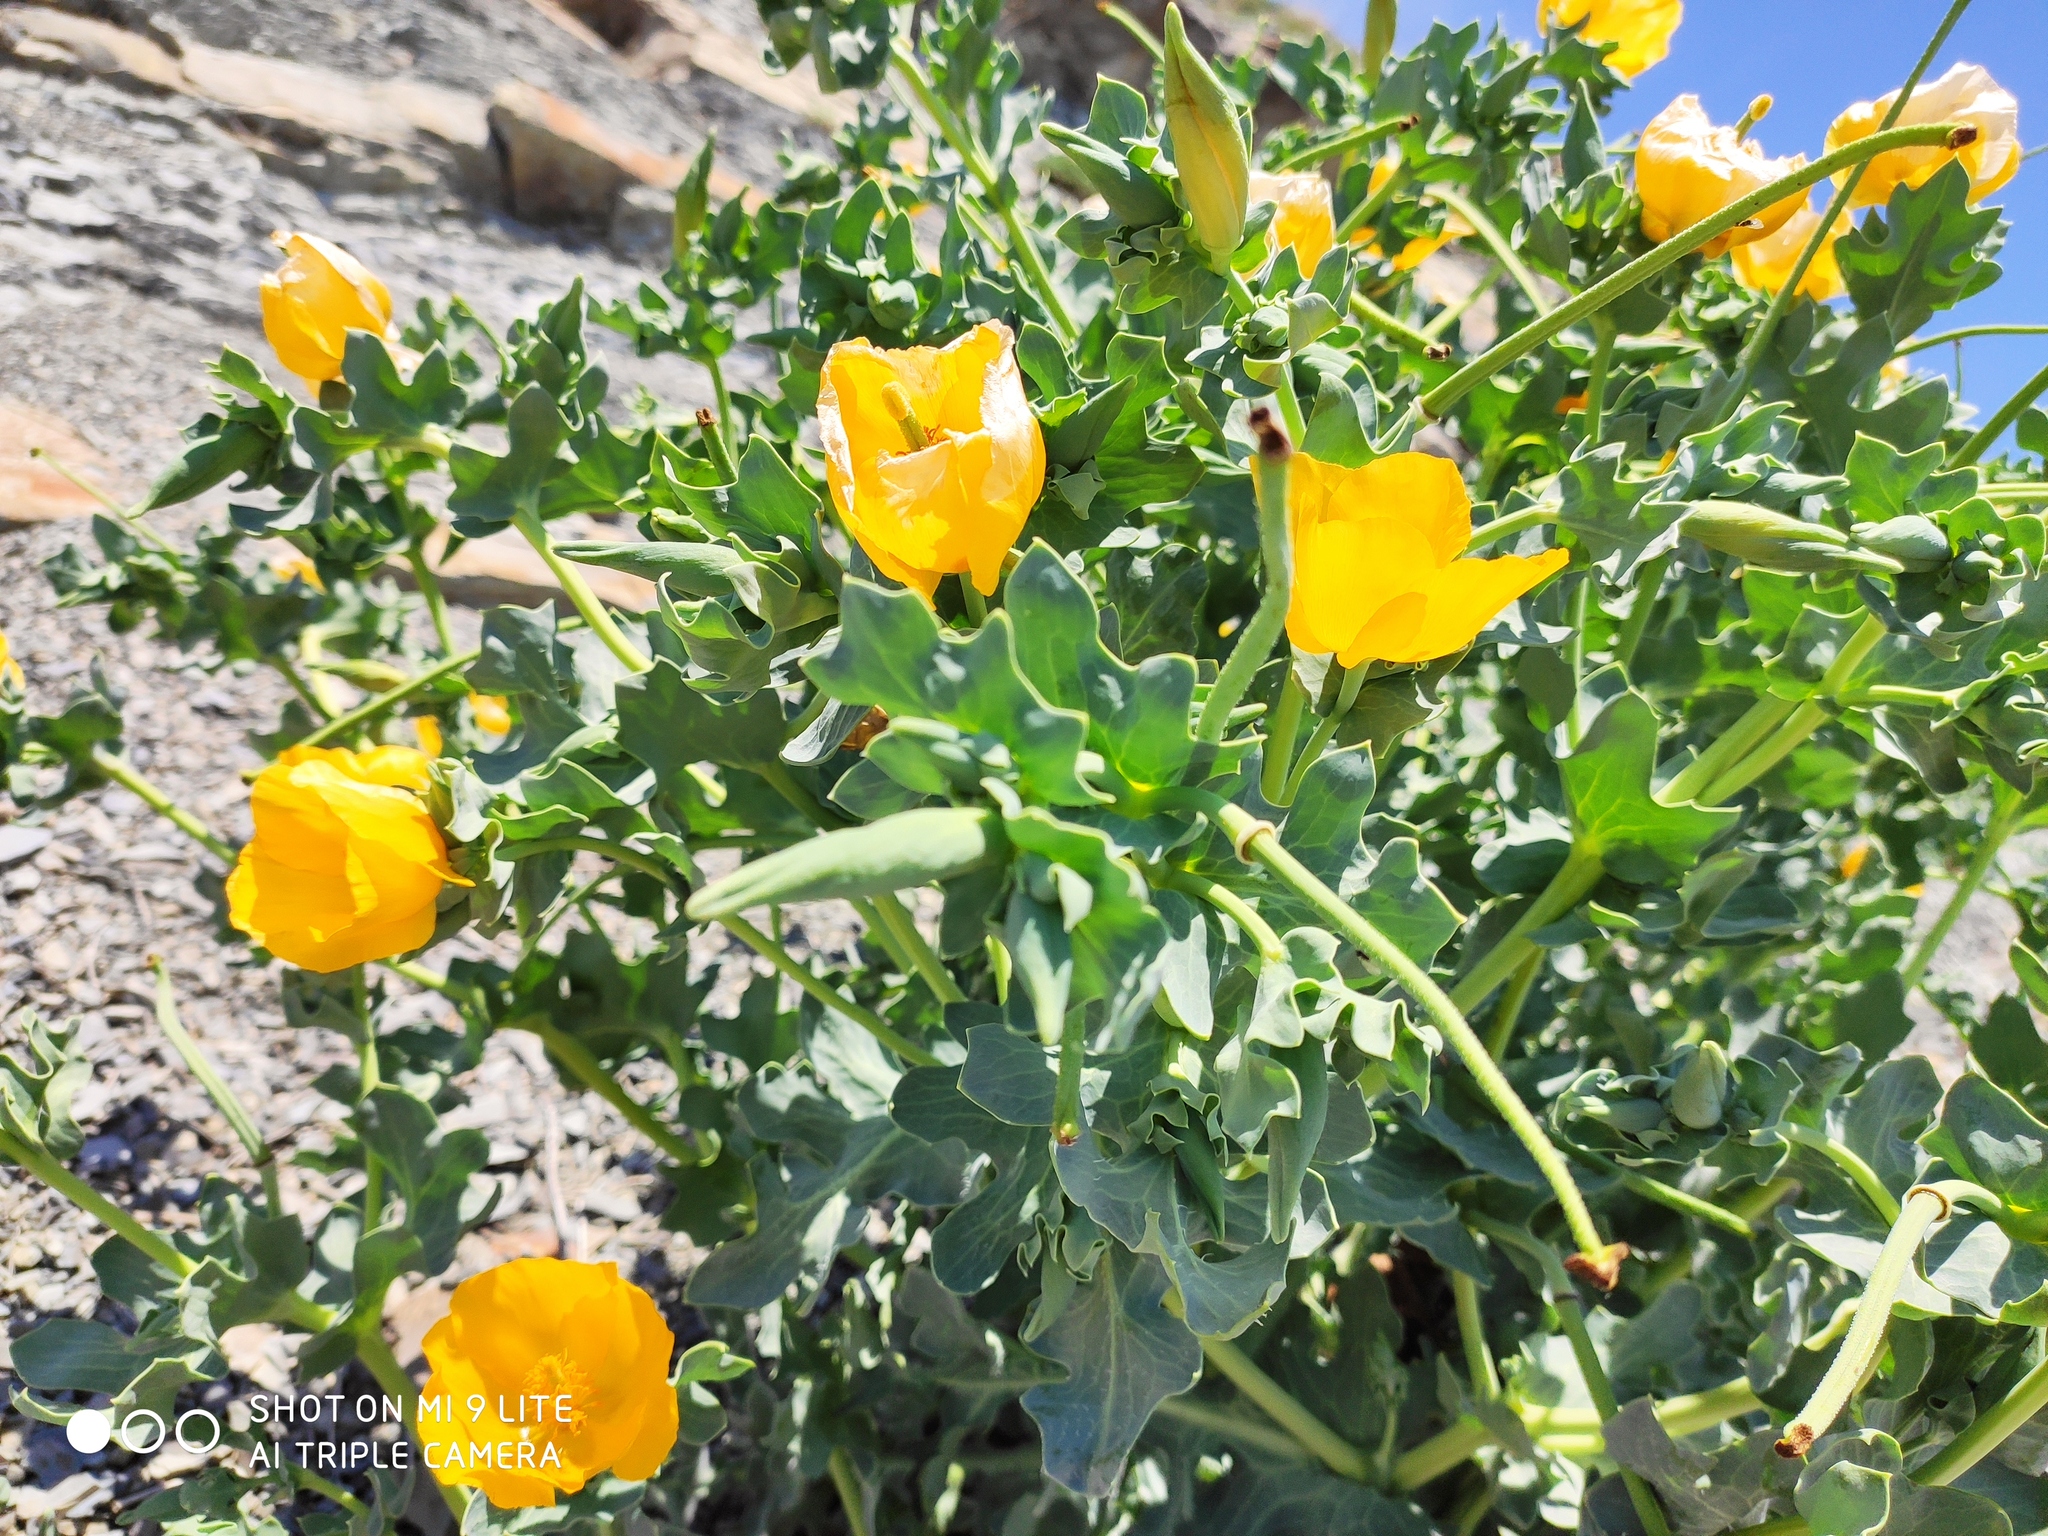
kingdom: Plantae
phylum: Tracheophyta
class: Magnoliopsida
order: Ranunculales
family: Papaveraceae
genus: Glaucium
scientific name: Glaucium flavum
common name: Yellow horned-poppy
